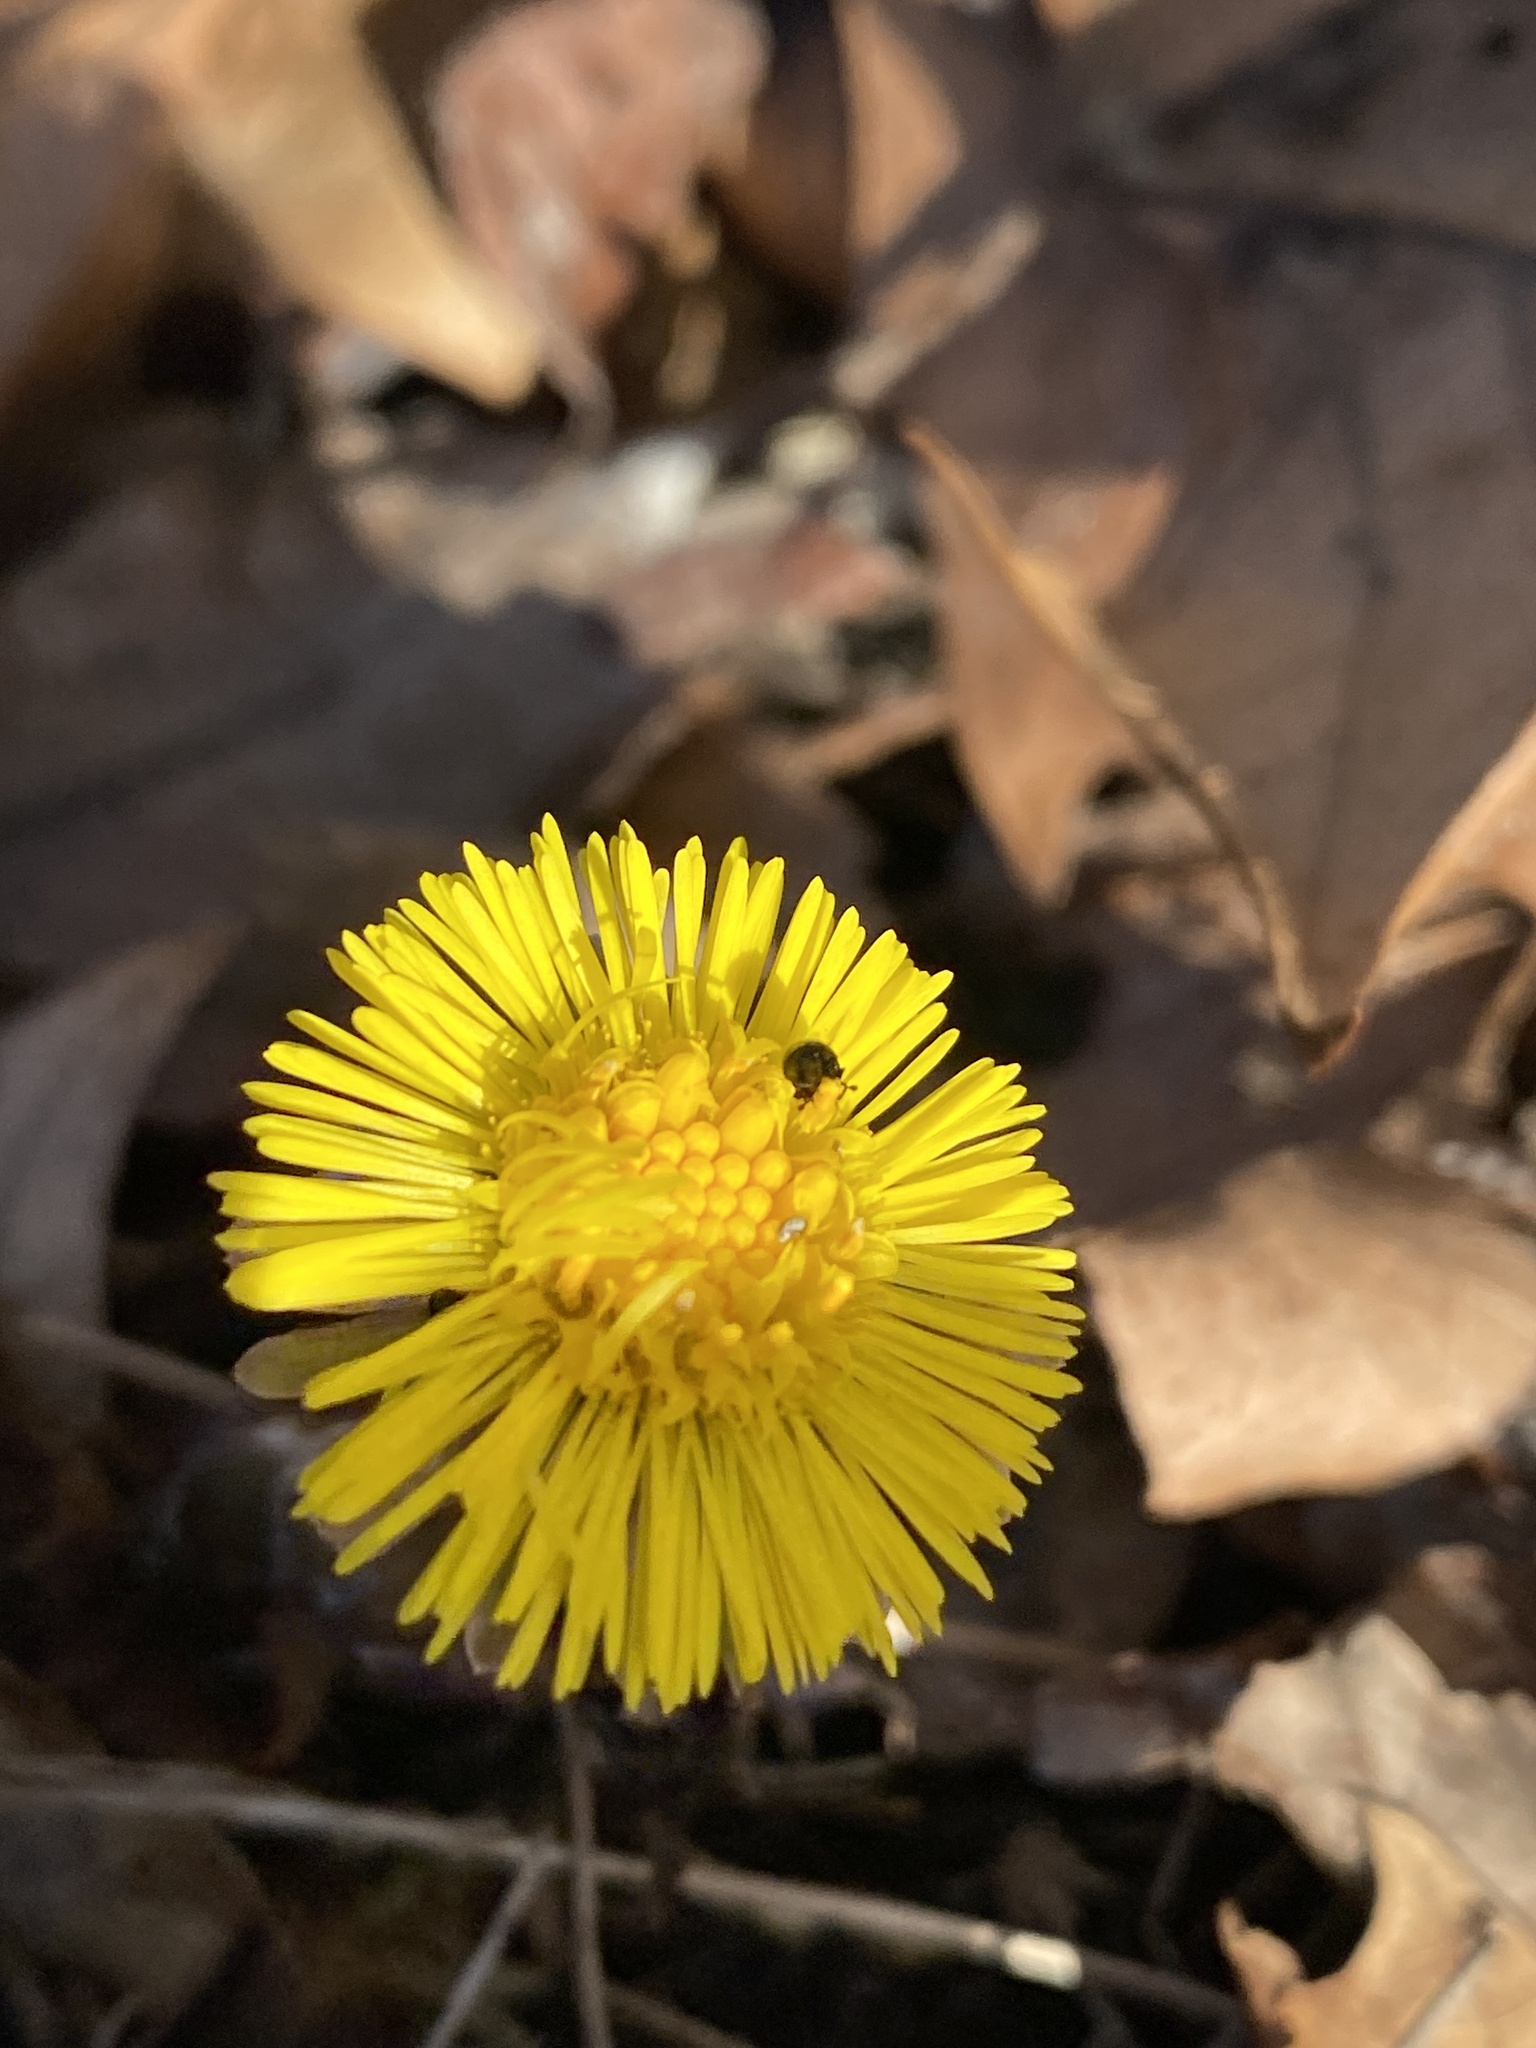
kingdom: Plantae
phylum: Tracheophyta
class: Magnoliopsida
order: Asterales
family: Asteraceae
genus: Tussilago
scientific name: Tussilago farfara
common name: Coltsfoot
